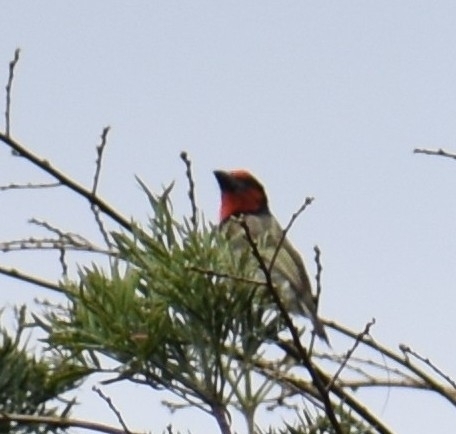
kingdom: Animalia
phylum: Chordata
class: Aves
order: Piciformes
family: Lybiidae
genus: Lybius
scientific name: Lybius torquatus
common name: Black-collared barbet
